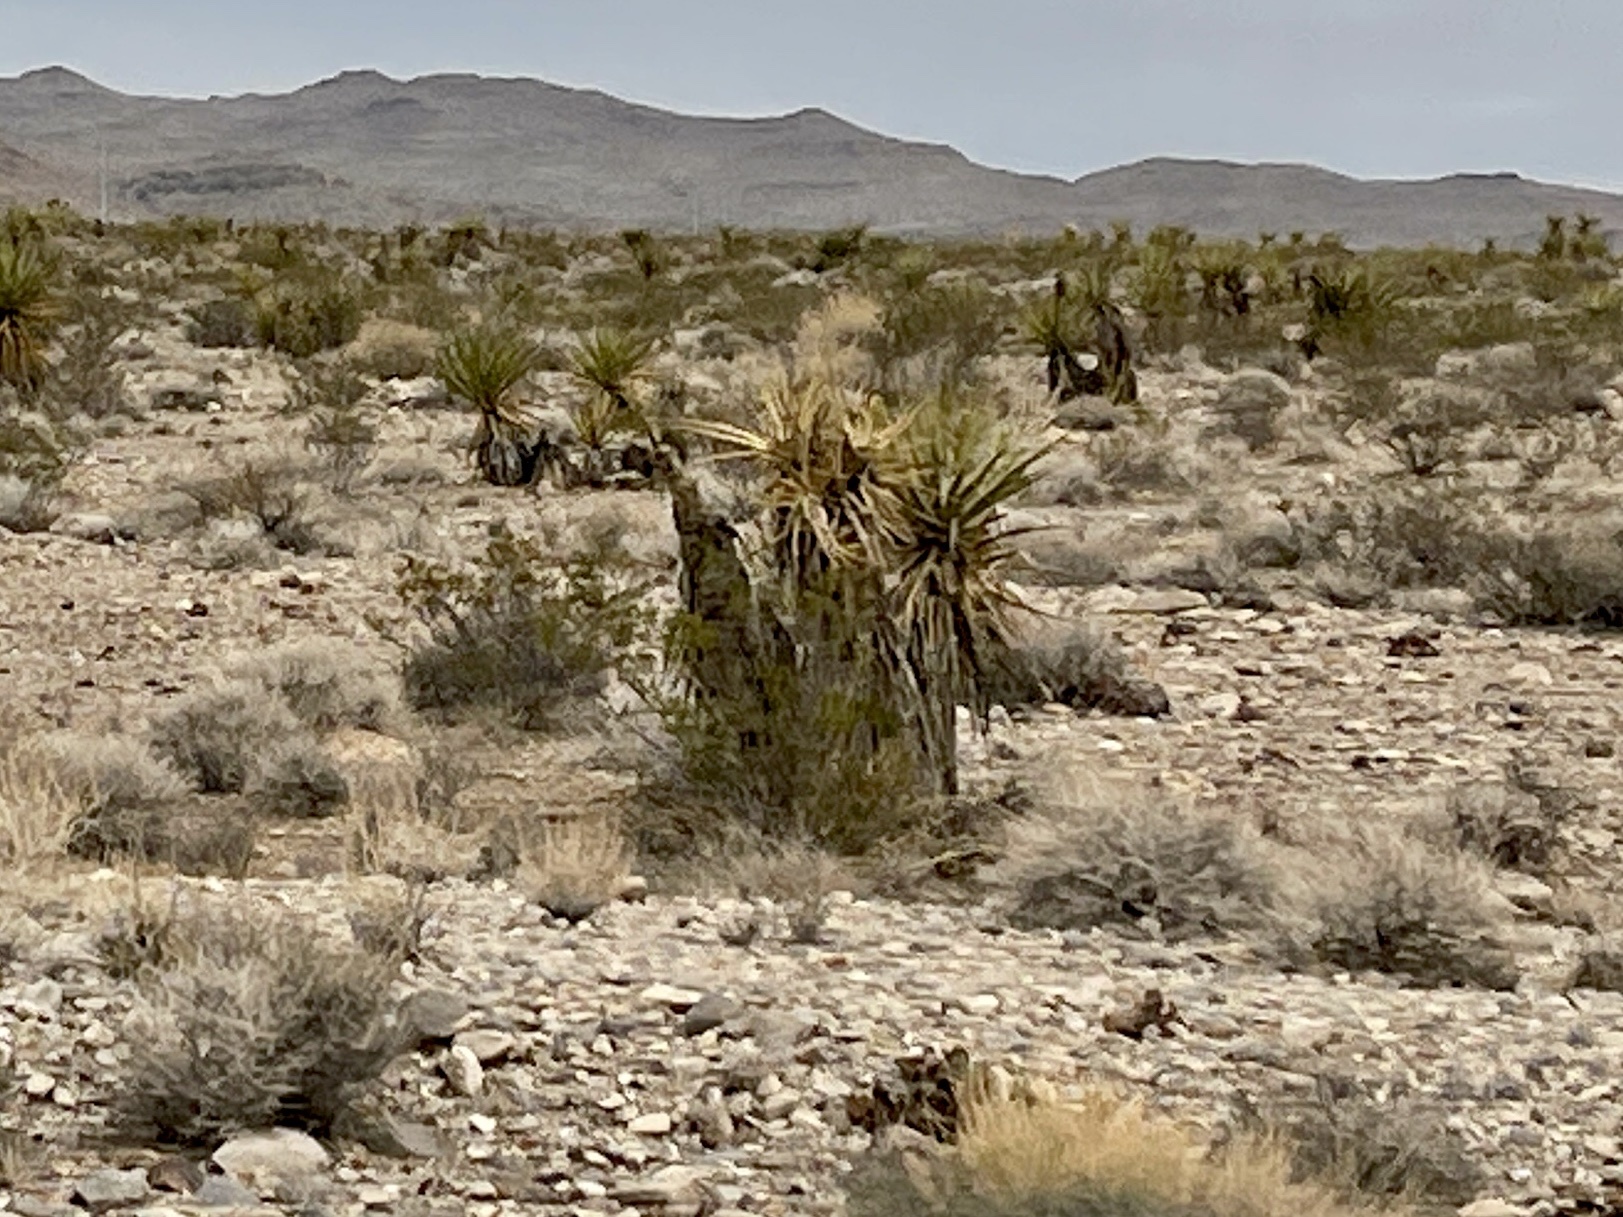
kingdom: Plantae
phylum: Tracheophyta
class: Liliopsida
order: Asparagales
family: Asparagaceae
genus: Yucca
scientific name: Yucca schidigera
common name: Mojave yucca
